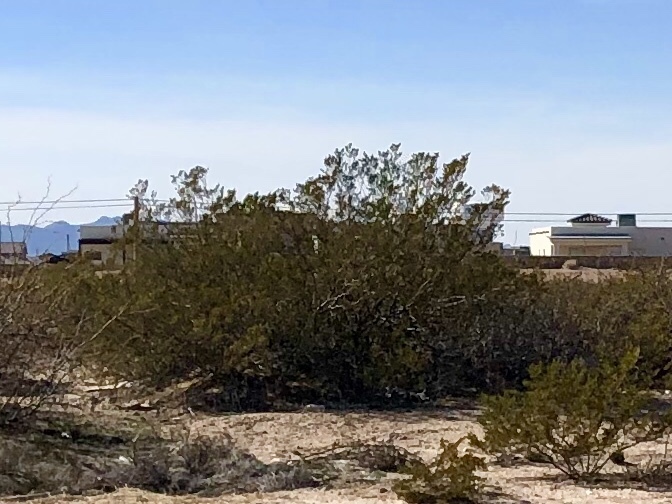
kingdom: Plantae
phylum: Tracheophyta
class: Magnoliopsida
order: Zygophyllales
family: Zygophyllaceae
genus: Larrea
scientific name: Larrea tridentata
